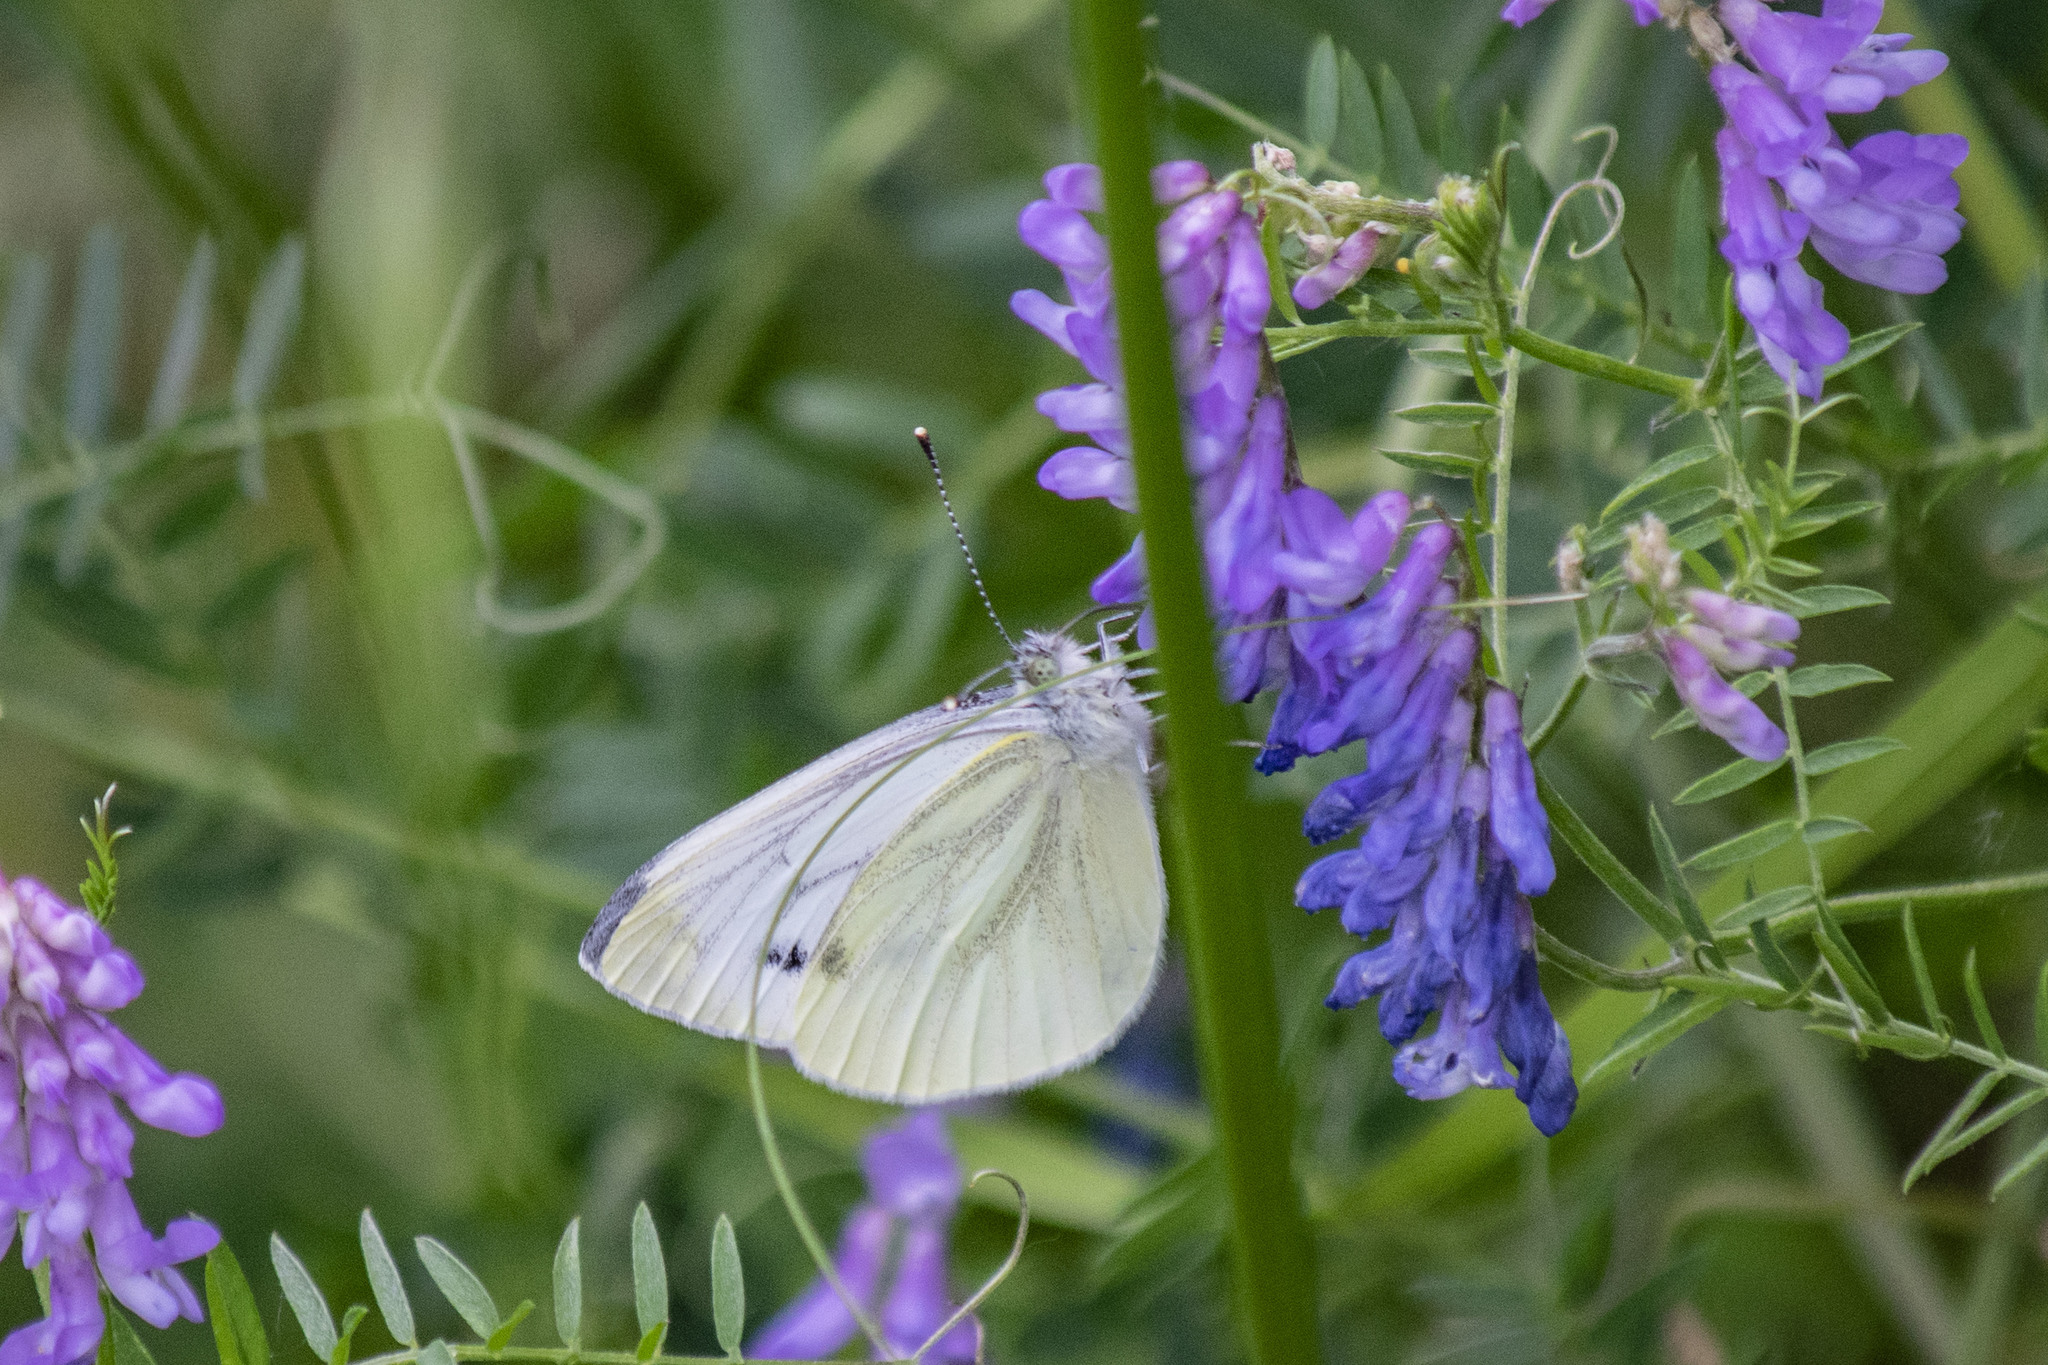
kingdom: Animalia
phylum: Arthropoda
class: Insecta
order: Lepidoptera
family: Pieridae
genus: Pieris
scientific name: Pieris rapae
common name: Small white
